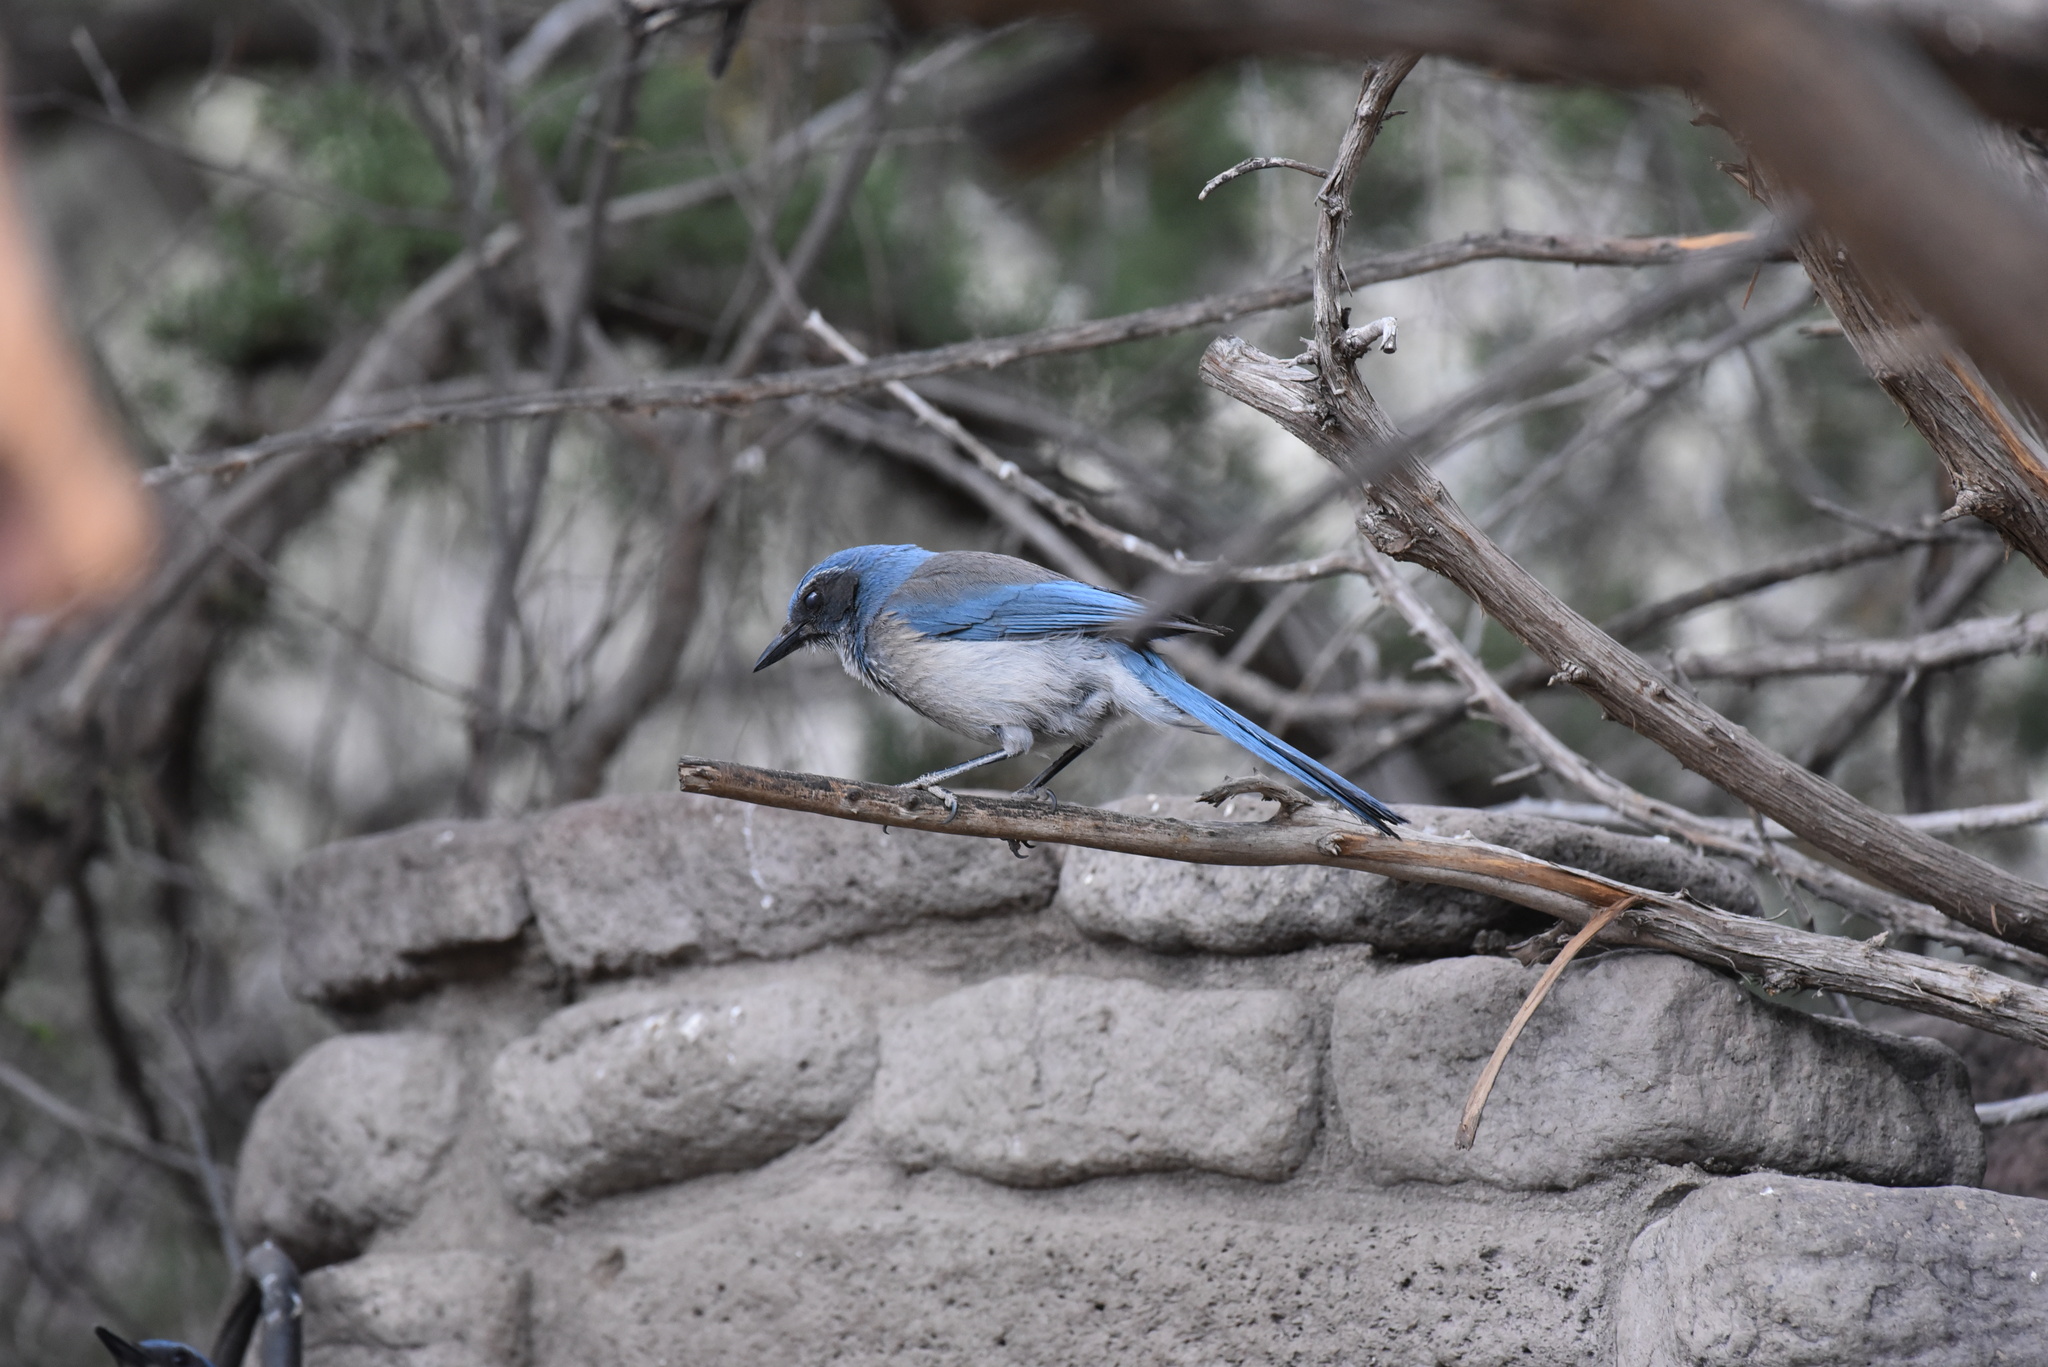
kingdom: Animalia
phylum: Chordata
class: Aves
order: Passeriformes
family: Corvidae
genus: Aphelocoma
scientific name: Aphelocoma woodhouseii
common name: Woodhouse's scrub-jay
